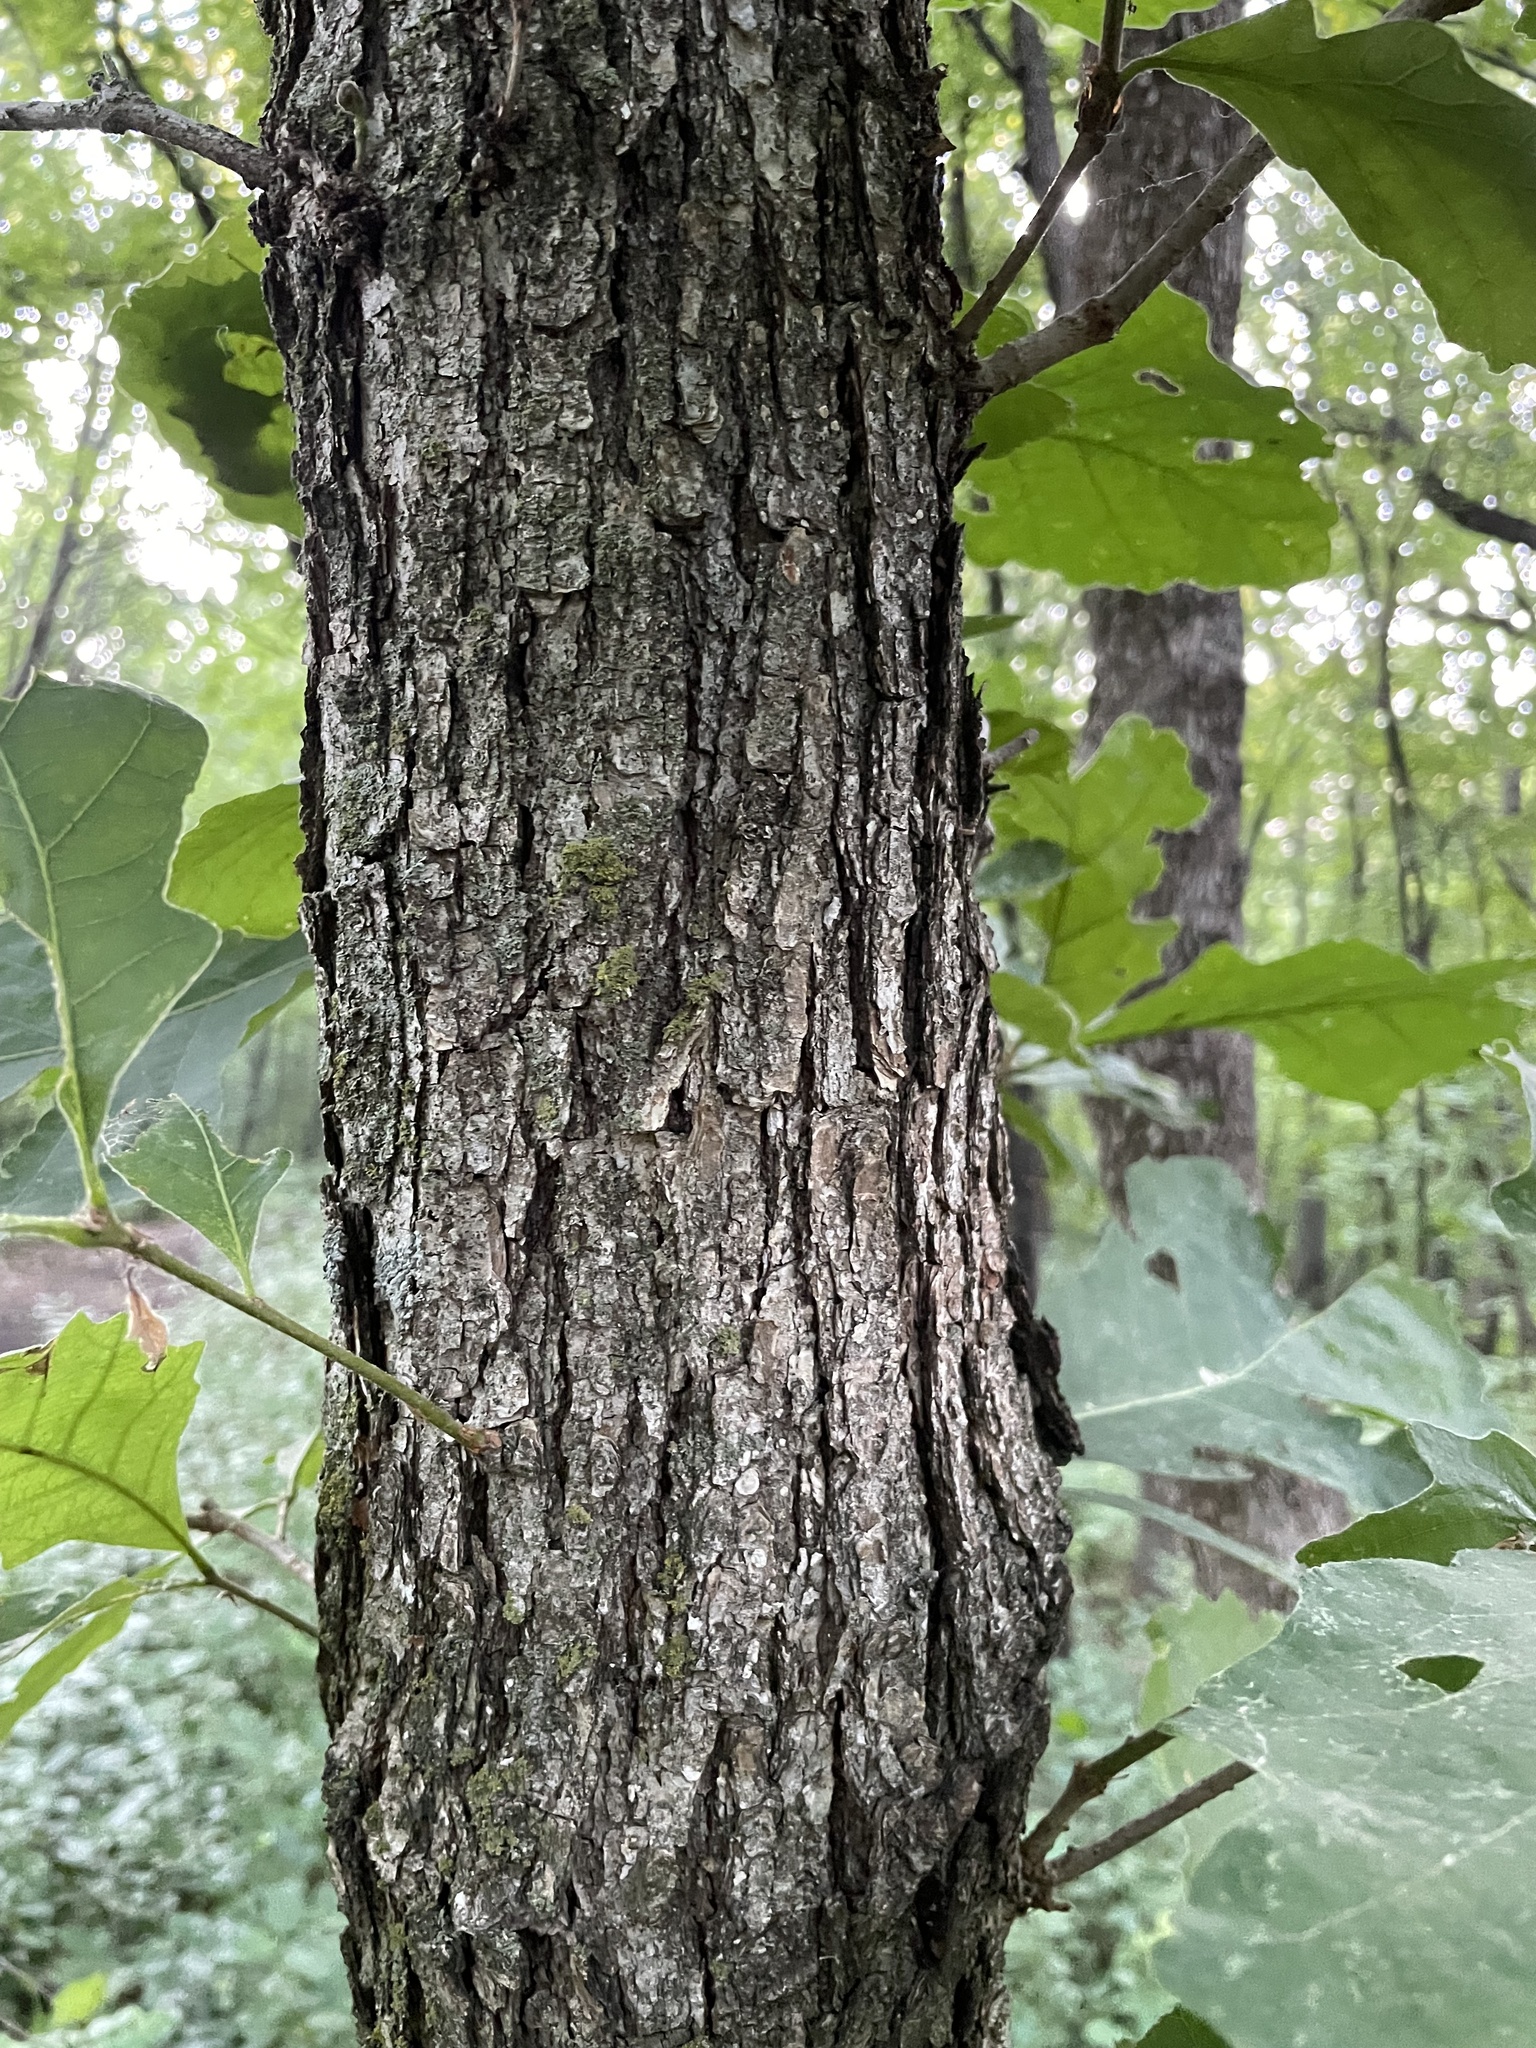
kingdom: Plantae
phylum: Tracheophyta
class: Magnoliopsida
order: Fagales
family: Fagaceae
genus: Quercus
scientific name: Quercus macrocarpa
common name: Bur oak
